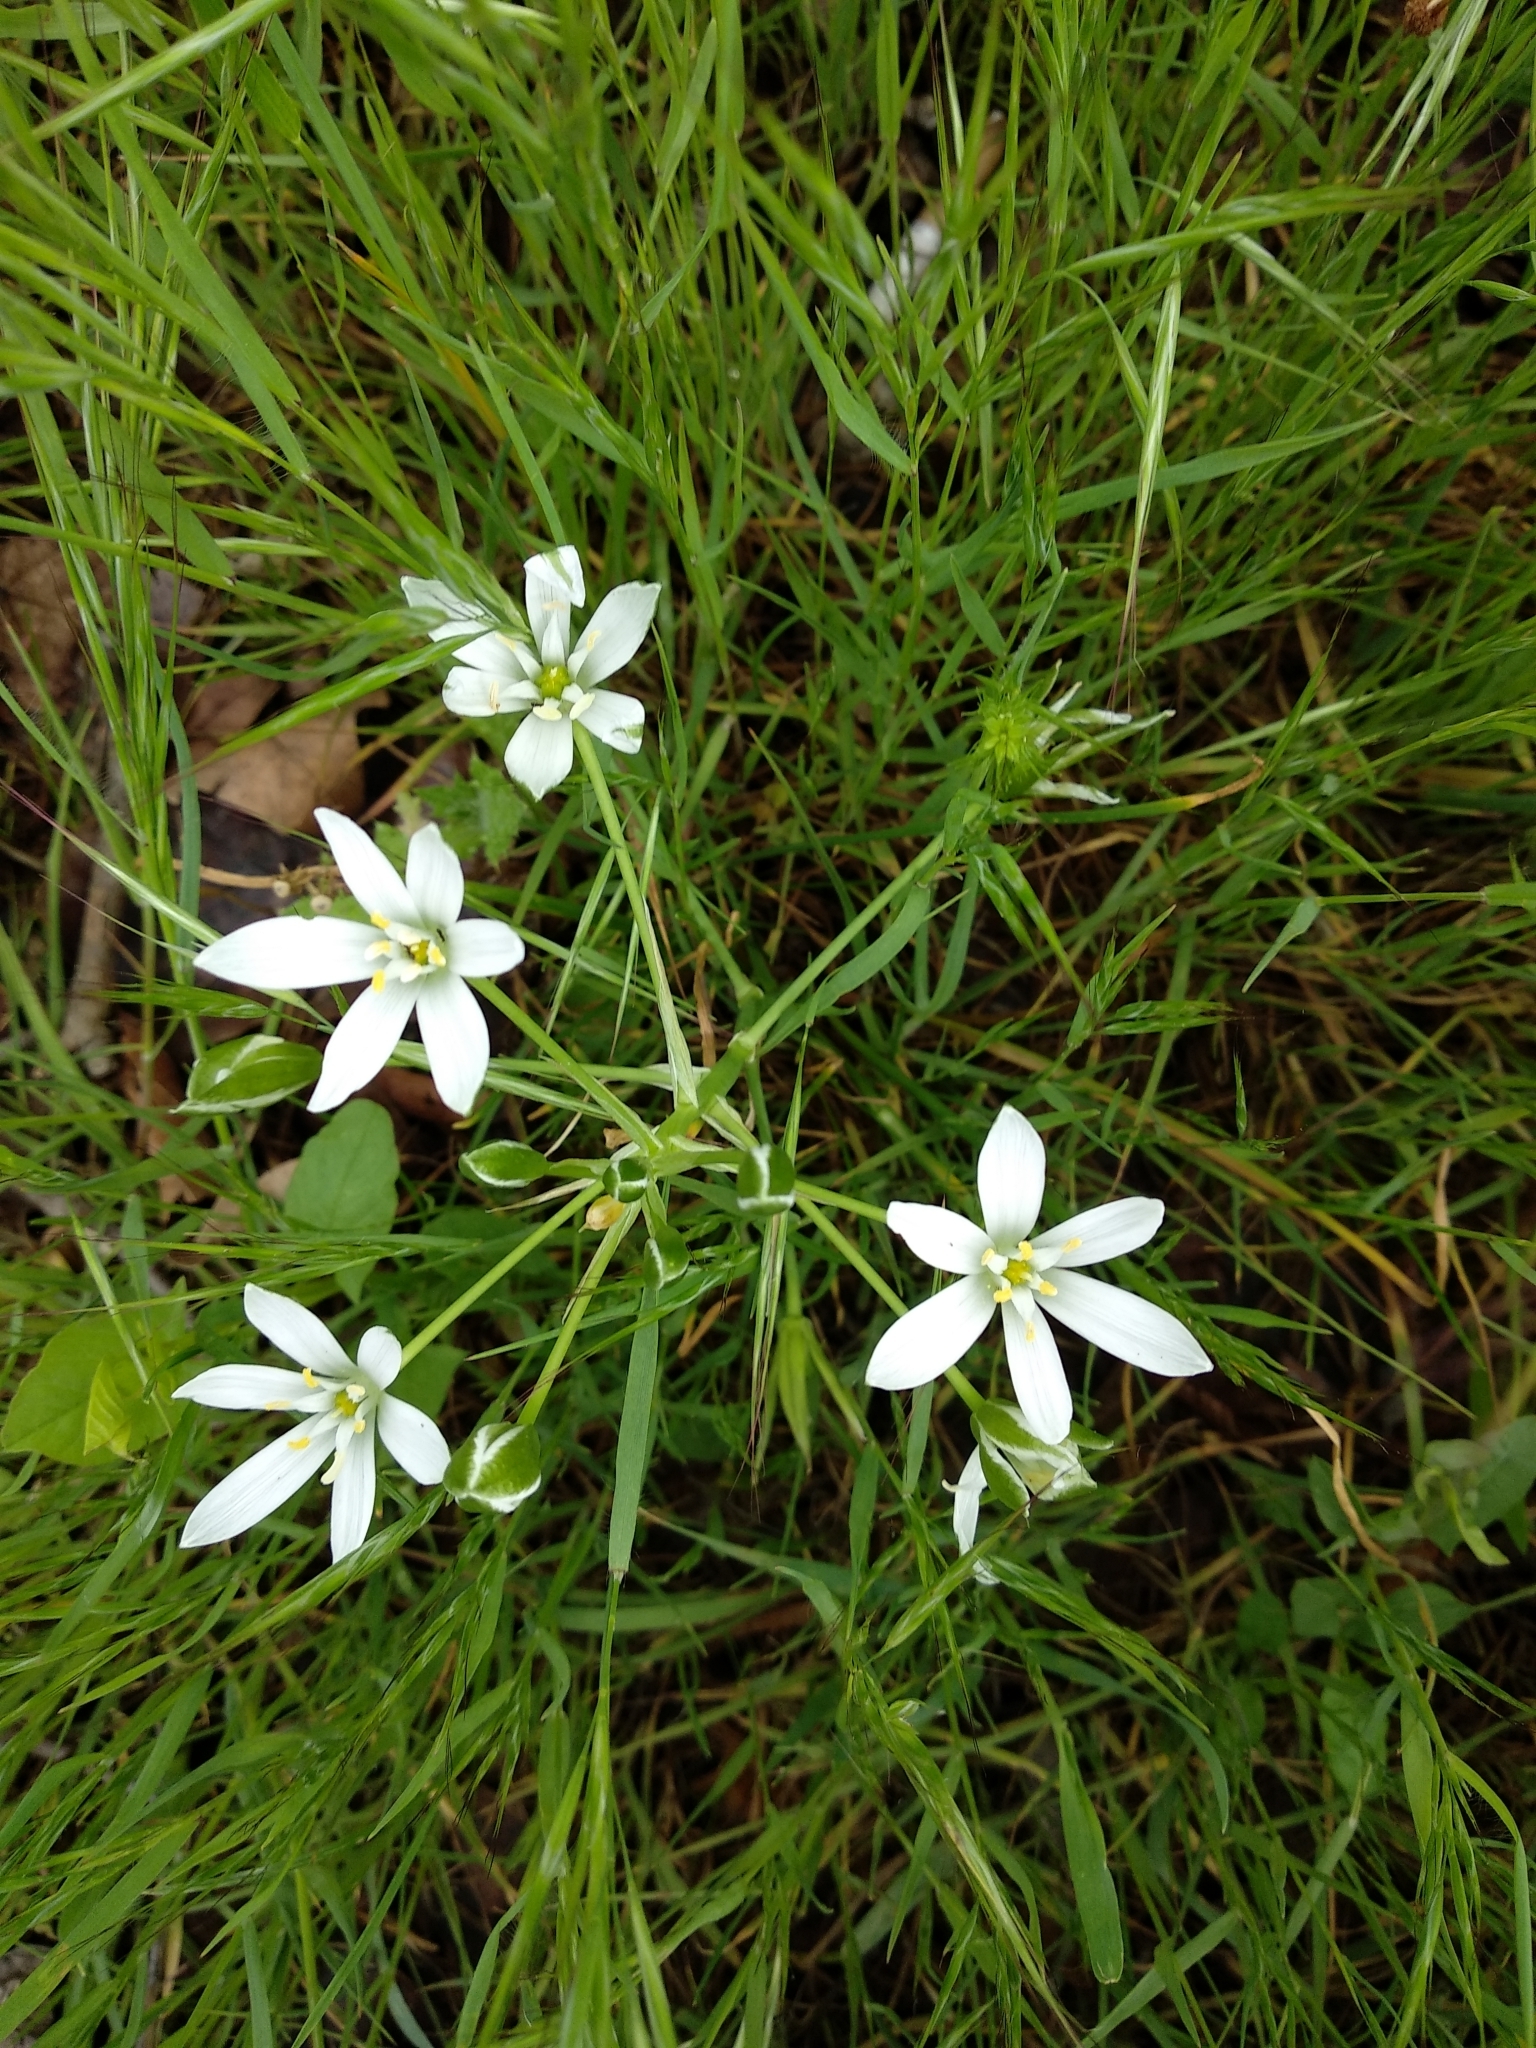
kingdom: Plantae
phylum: Tracheophyta
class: Liliopsida
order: Asparagales
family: Asparagaceae
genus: Ornithogalum
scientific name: Ornithogalum divergens
